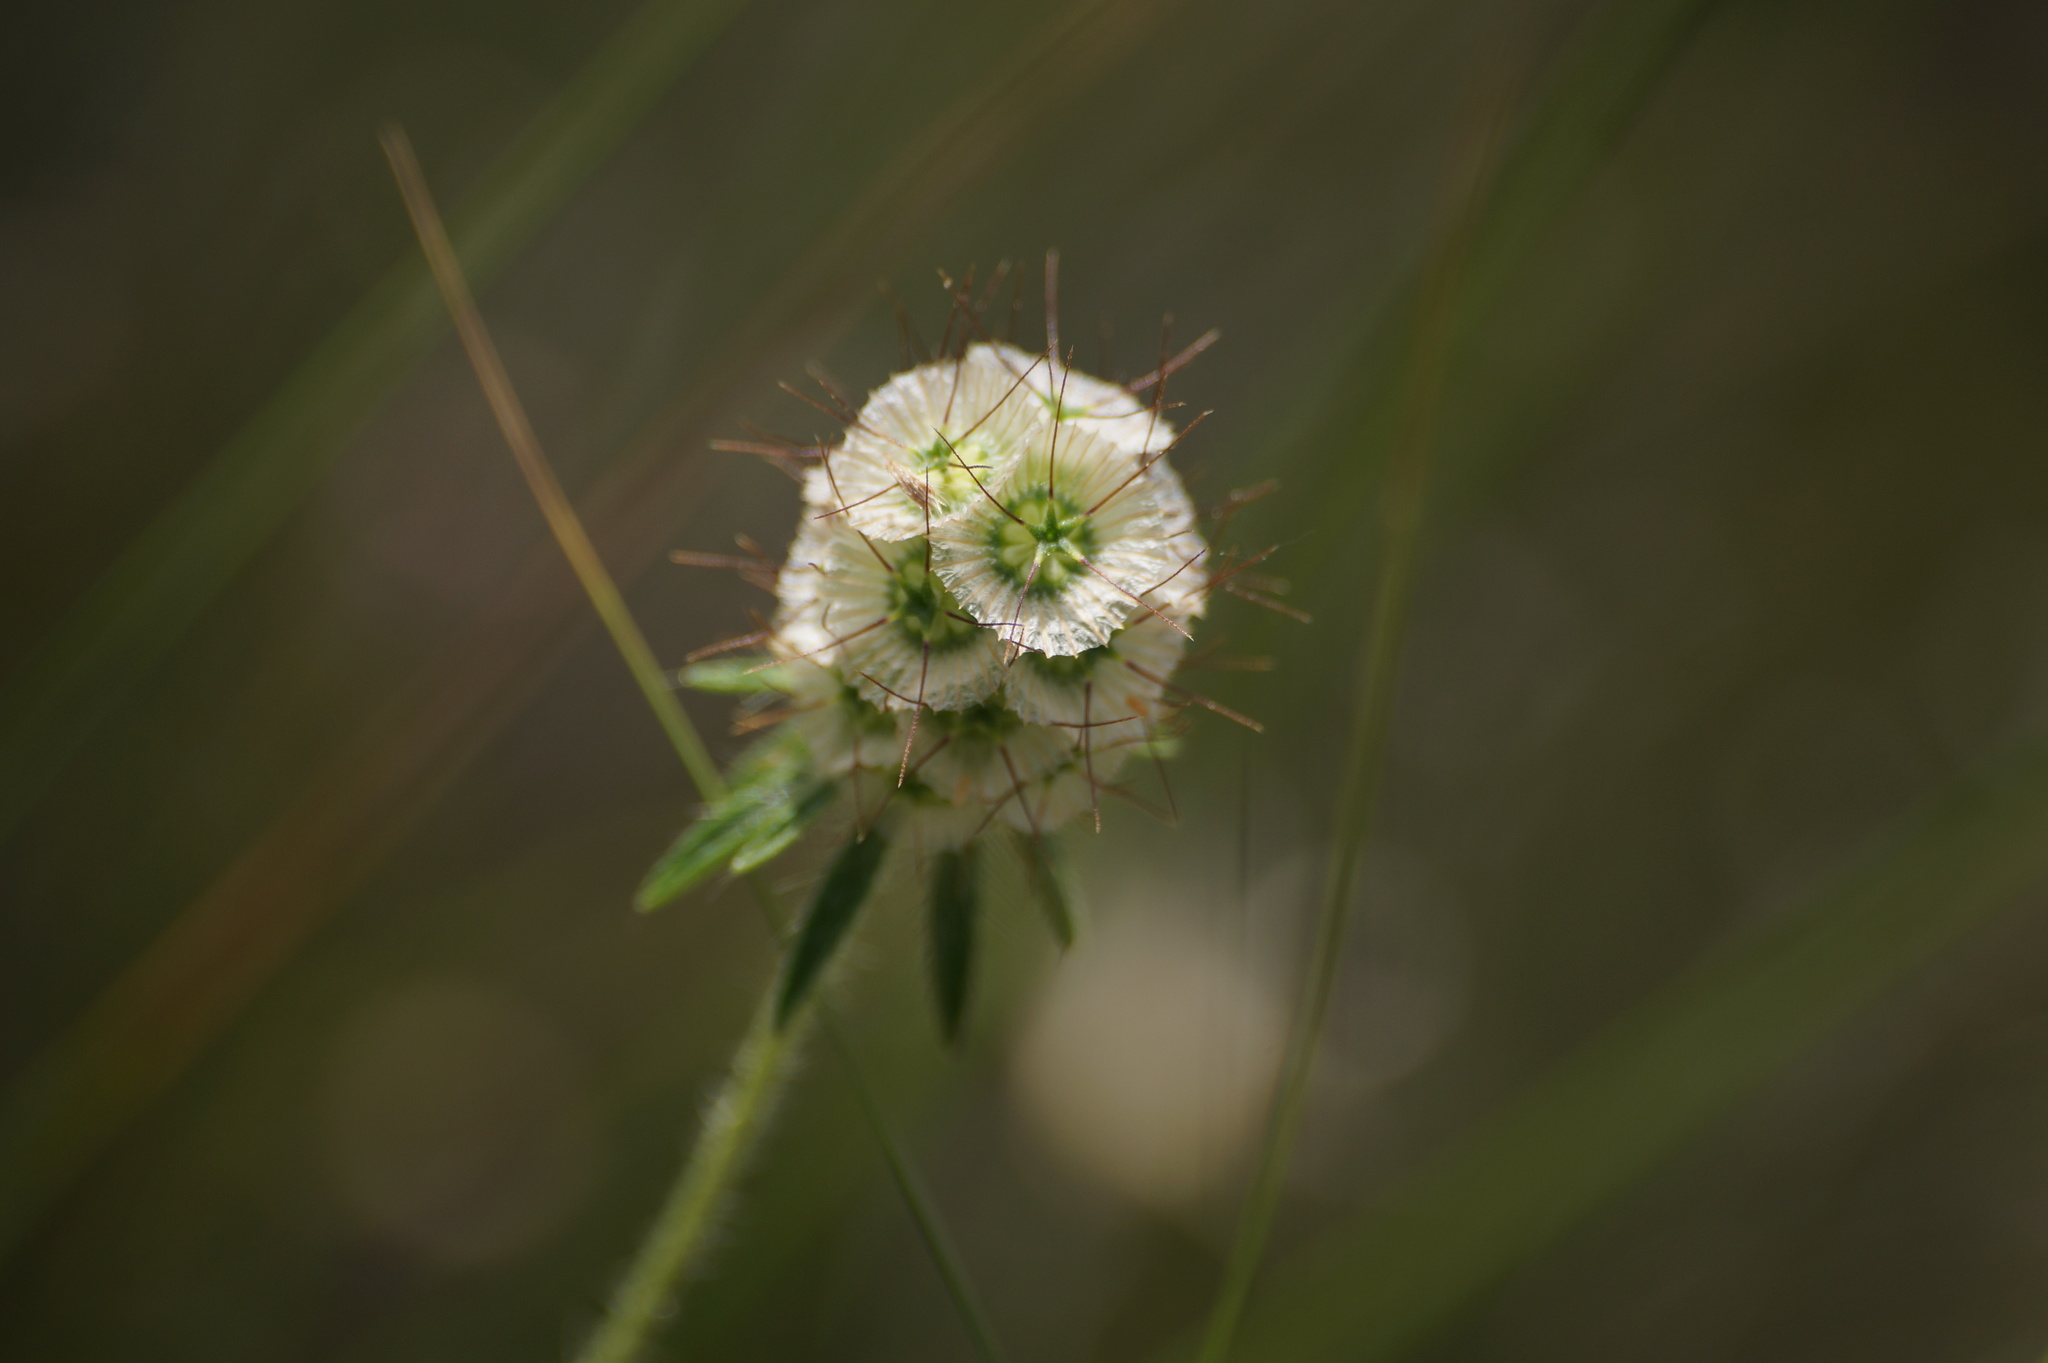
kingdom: Plantae
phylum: Tracheophyta
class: Magnoliopsida
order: Dipsacales
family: Caprifoliaceae
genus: Lomelosia
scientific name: Lomelosia micrantha
